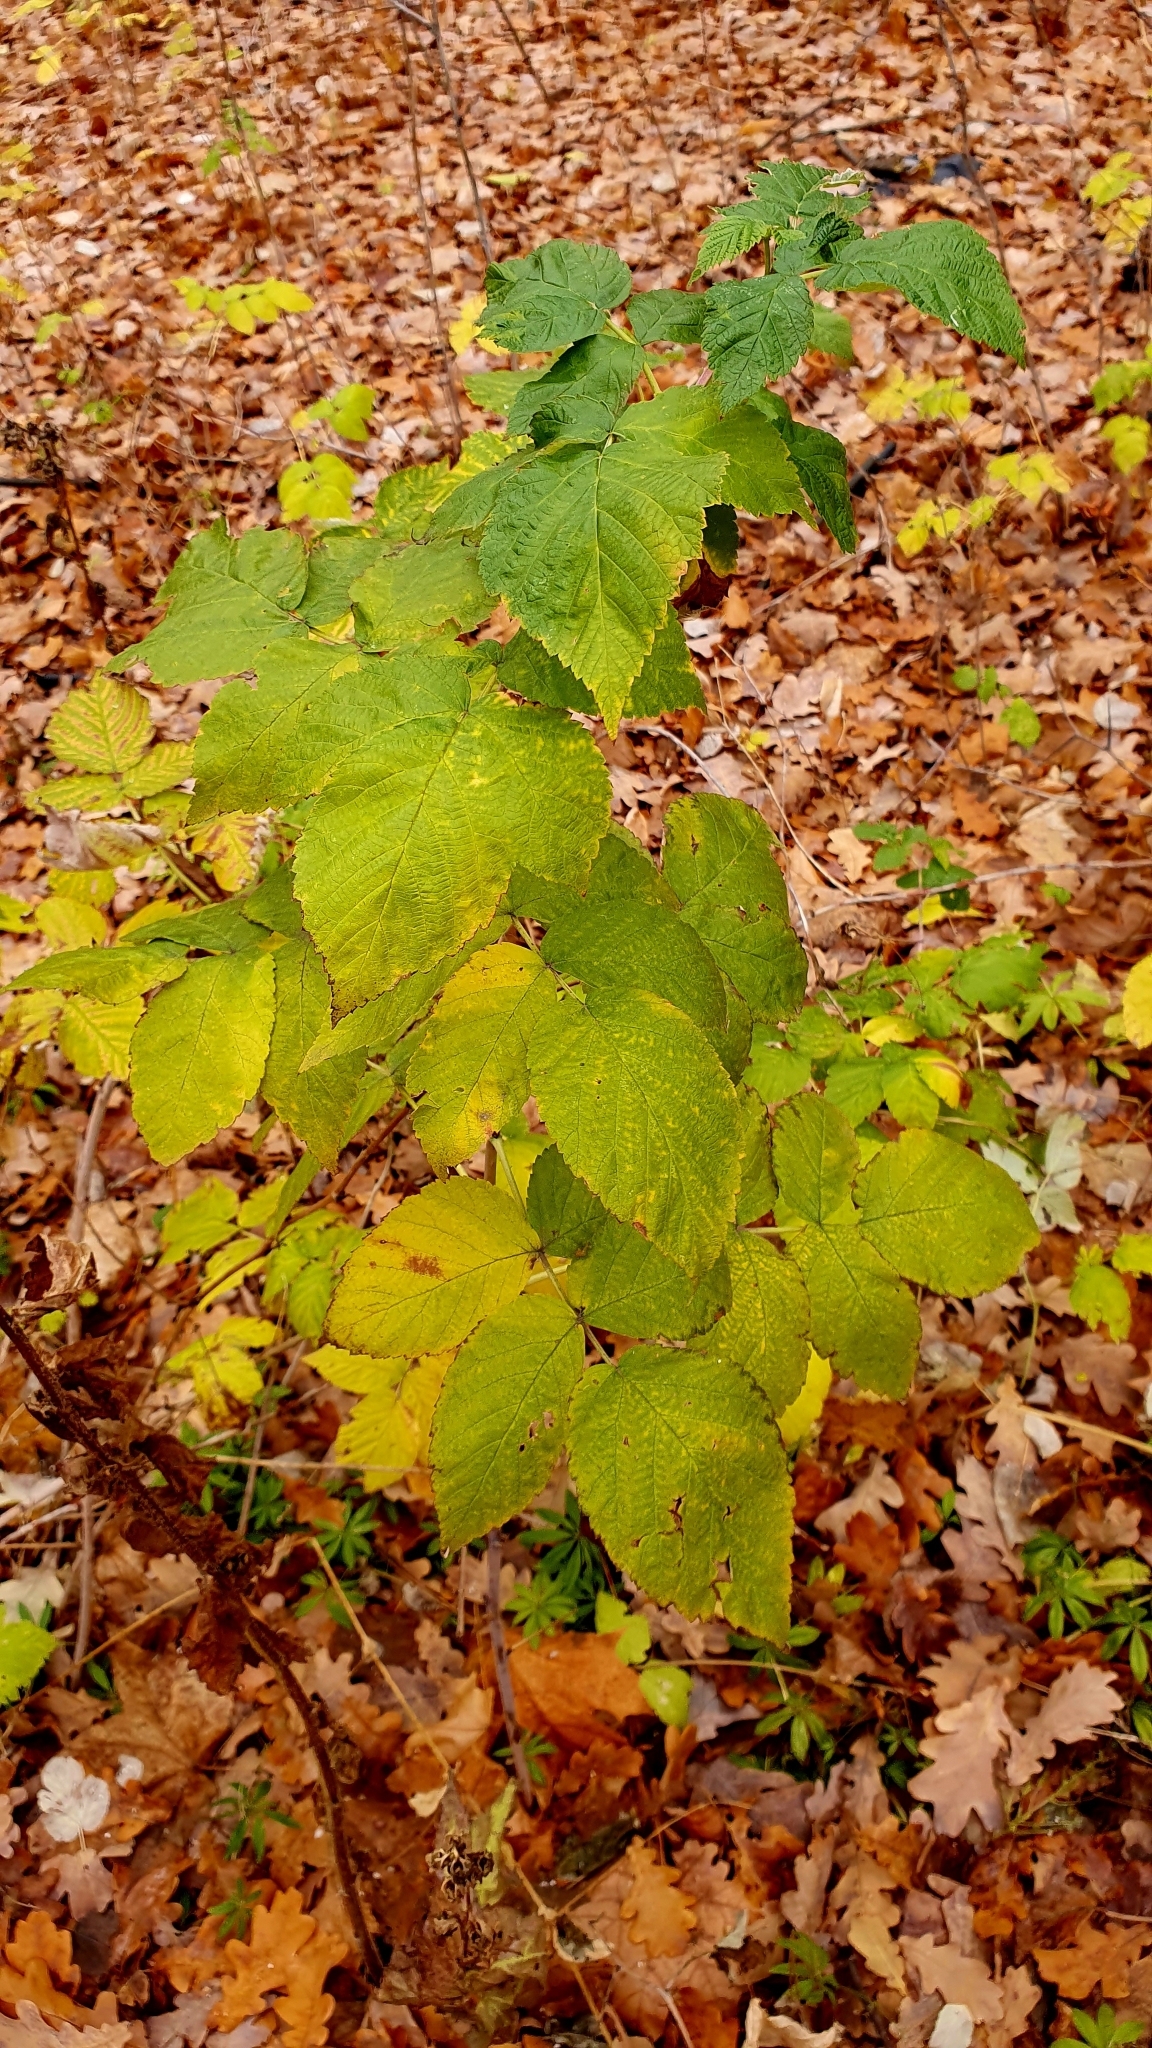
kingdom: Plantae
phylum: Tracheophyta
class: Magnoliopsida
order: Rosales
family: Rosaceae
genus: Rubus
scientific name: Rubus idaeus
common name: Raspberry
